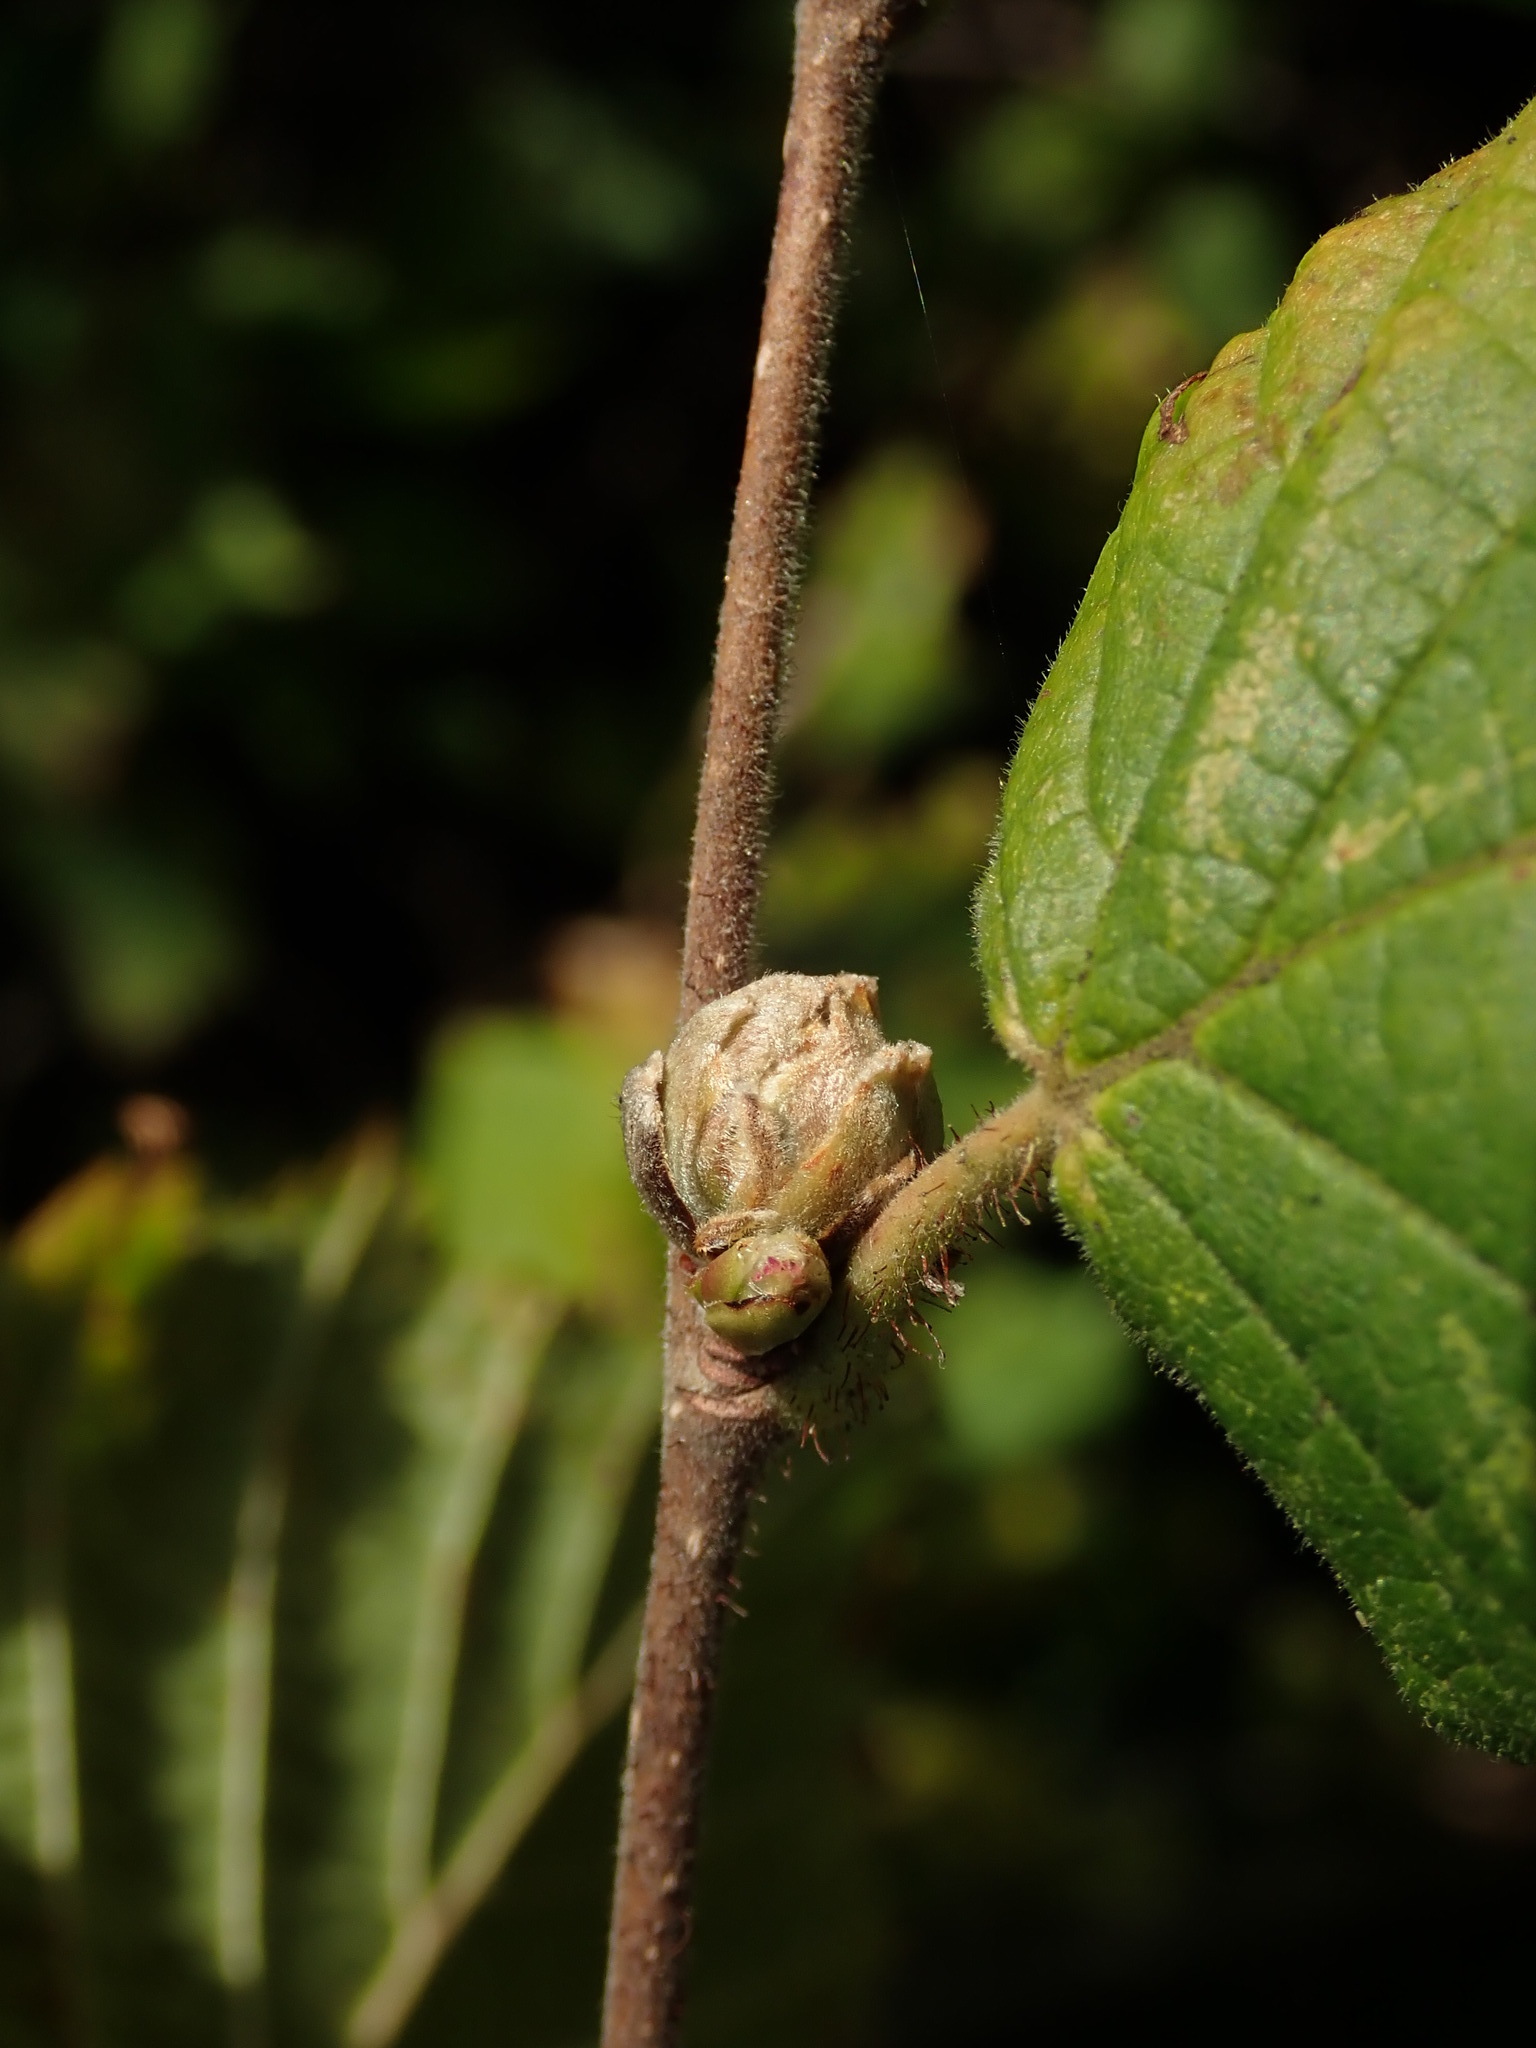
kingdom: Animalia
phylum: Arthropoda
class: Arachnida
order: Trombidiformes
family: Phytoptidae
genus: Phytoptus
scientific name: Phytoptus avellanae
